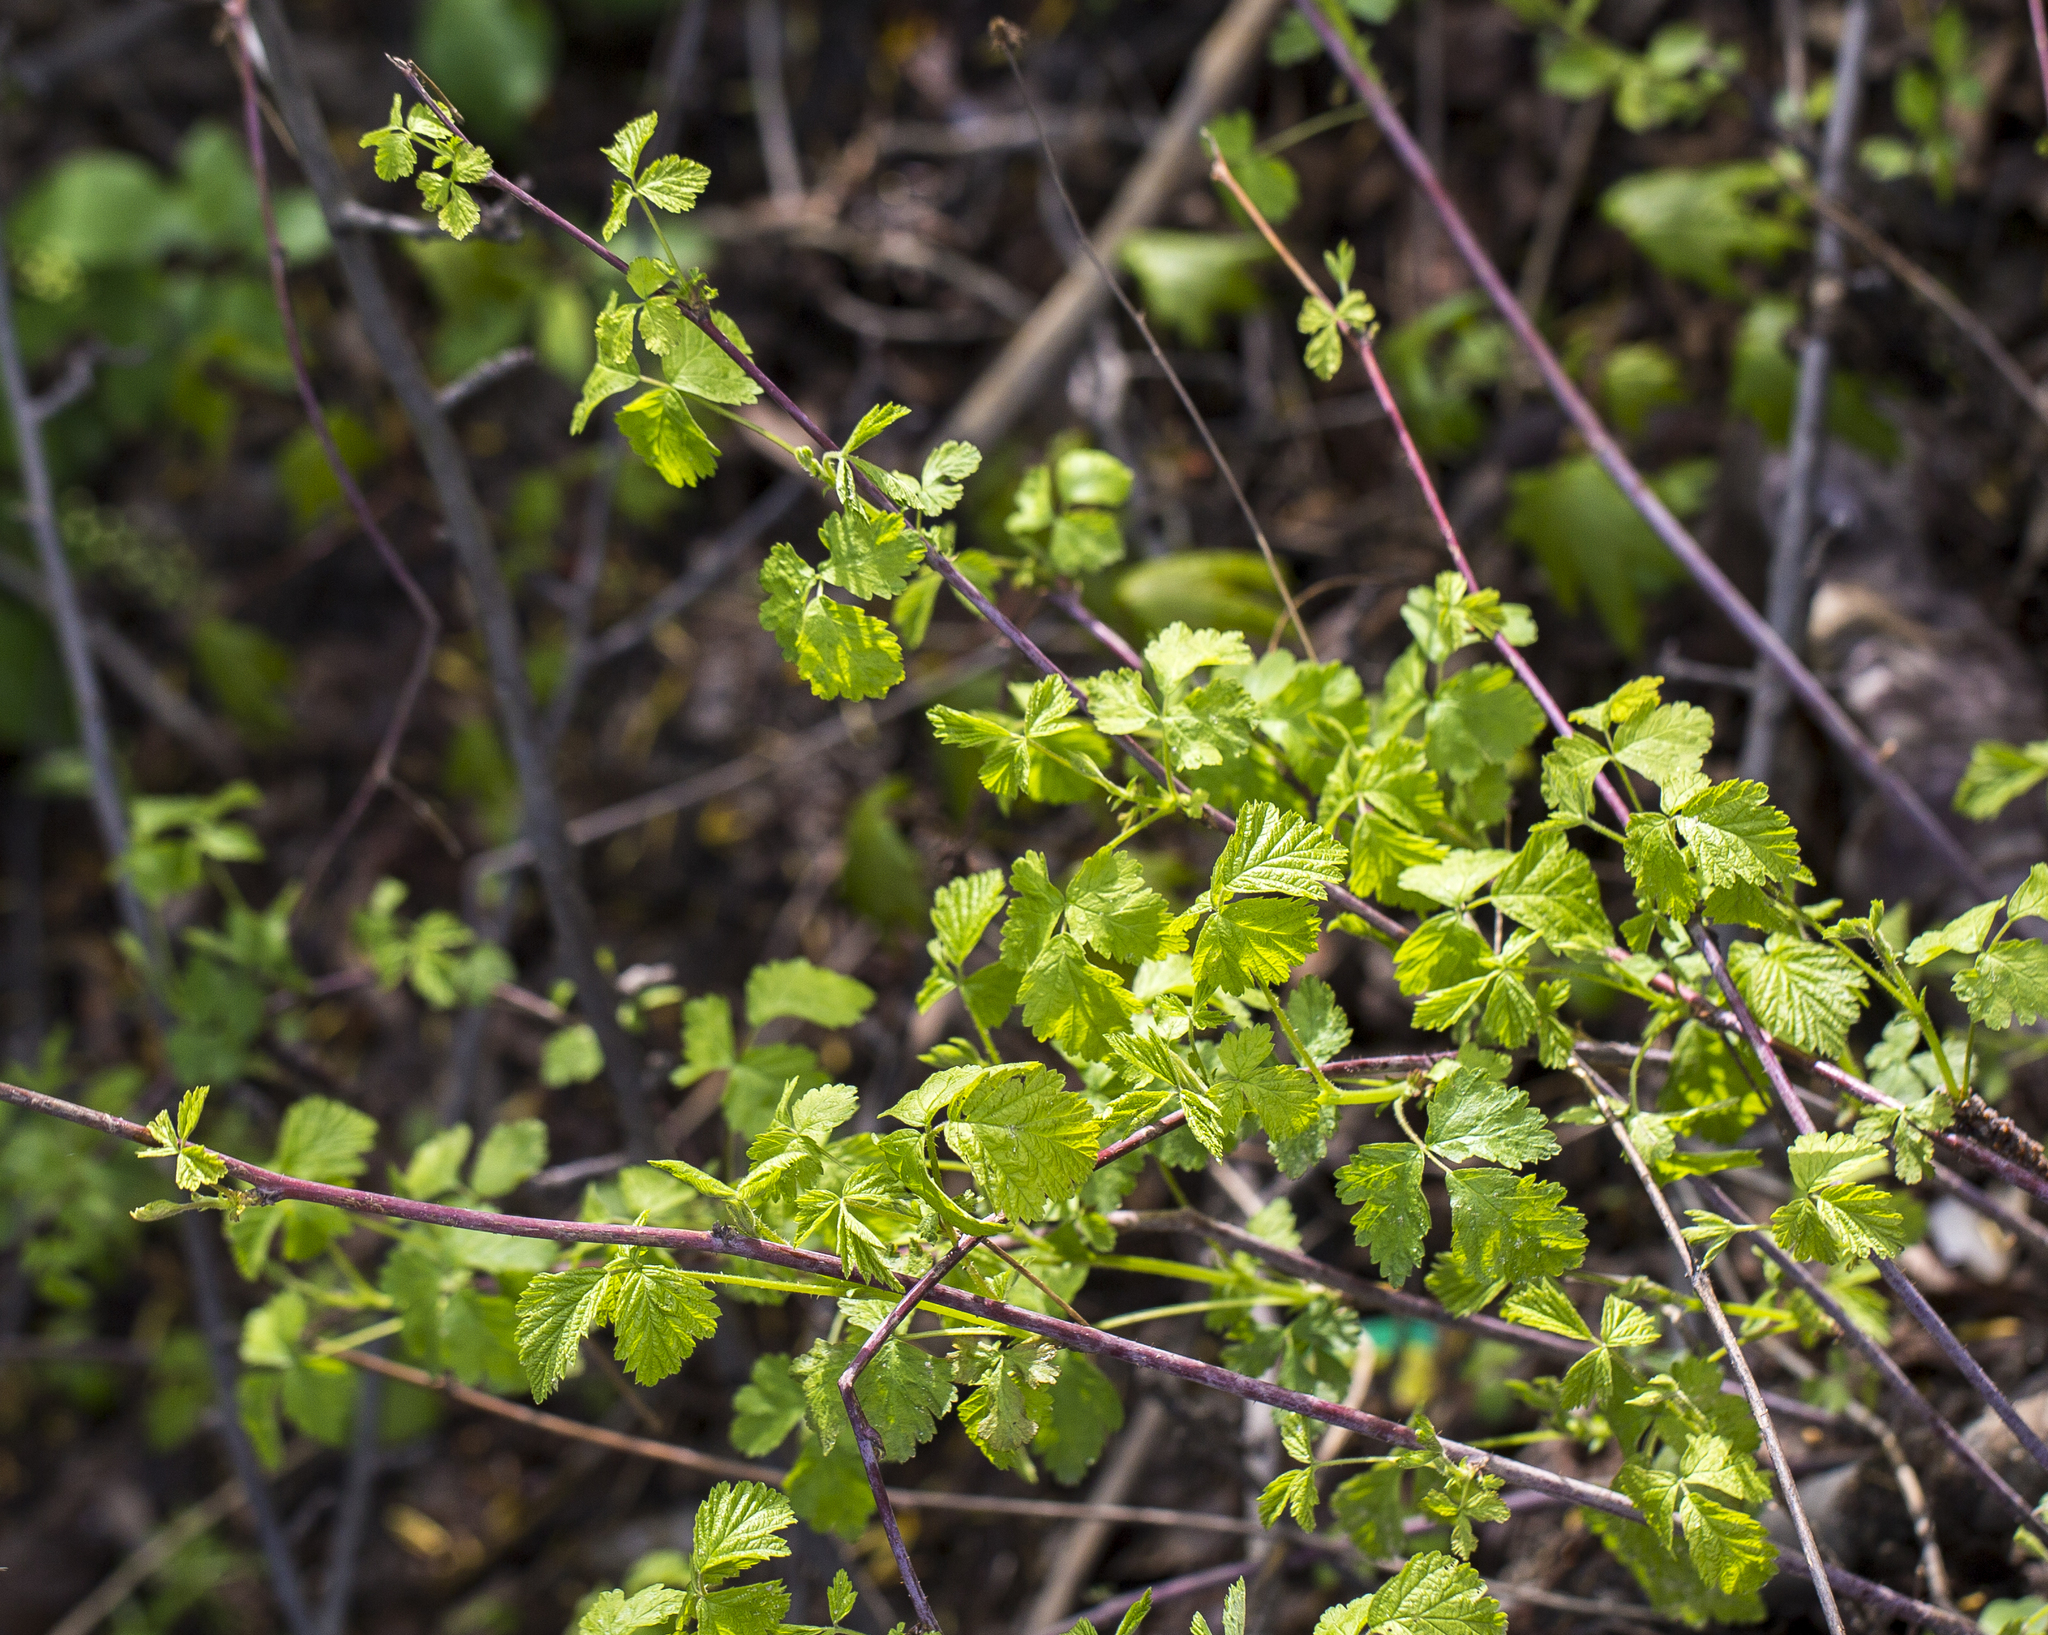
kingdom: Plantae
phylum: Tracheophyta
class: Magnoliopsida
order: Rosales
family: Rosaceae
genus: Rubus
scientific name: Rubus caesius
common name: Dewberry
